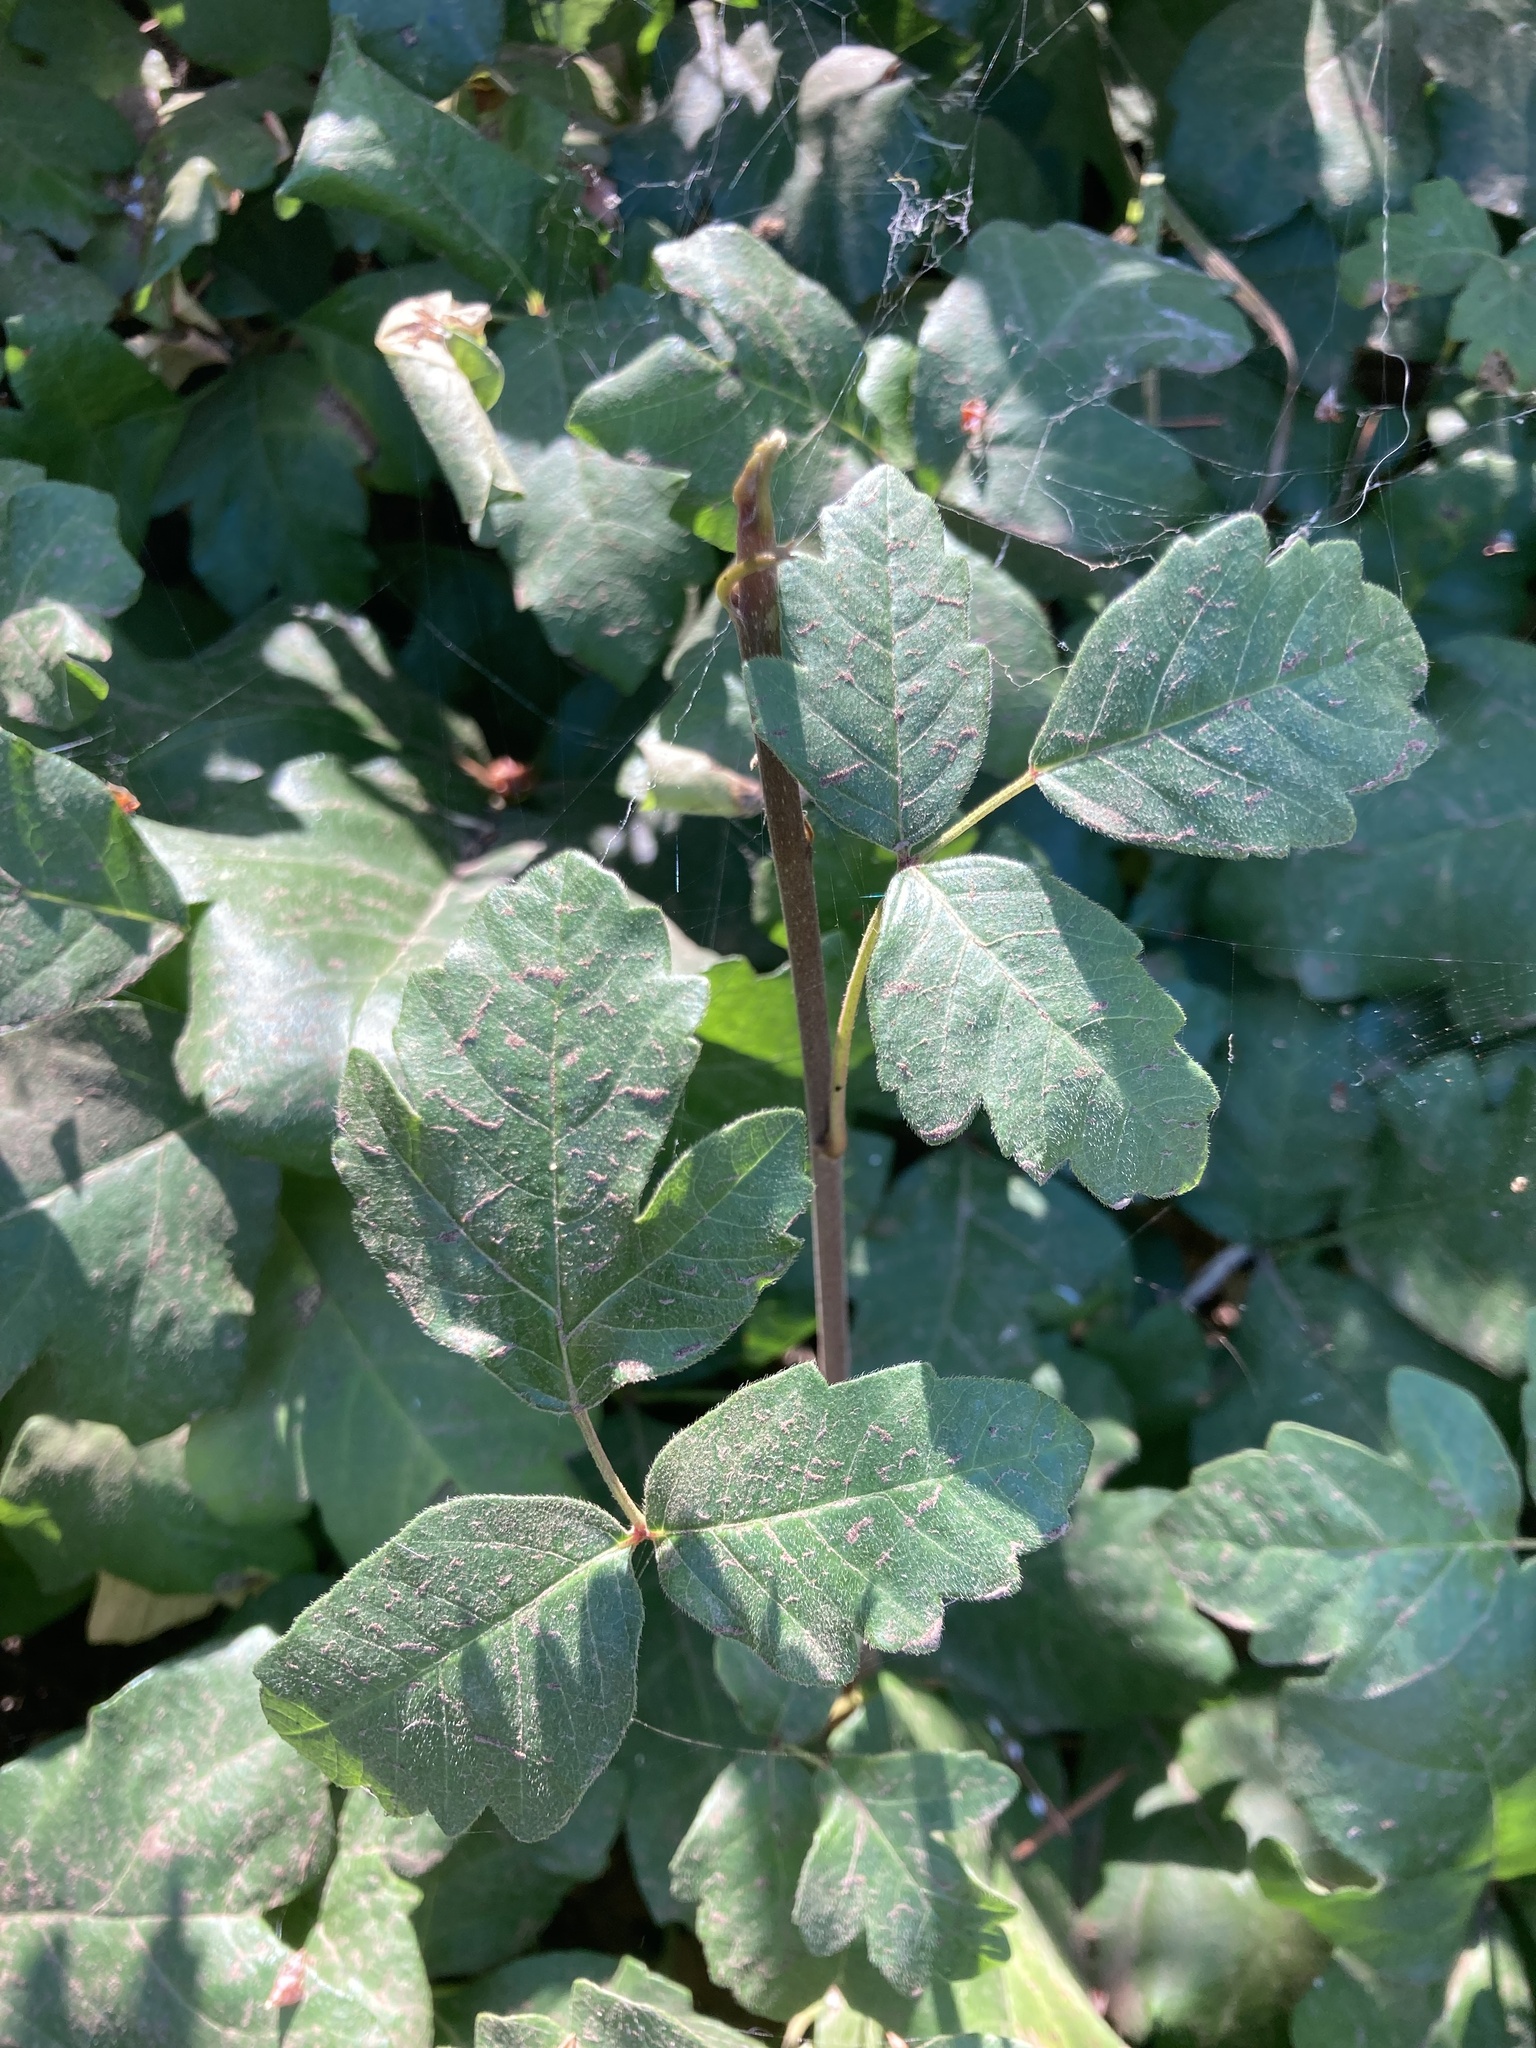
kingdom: Plantae
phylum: Tracheophyta
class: Magnoliopsida
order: Sapindales
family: Anacardiaceae
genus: Toxicodendron
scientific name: Toxicodendron diversilobum
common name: Pacific poison-oak
